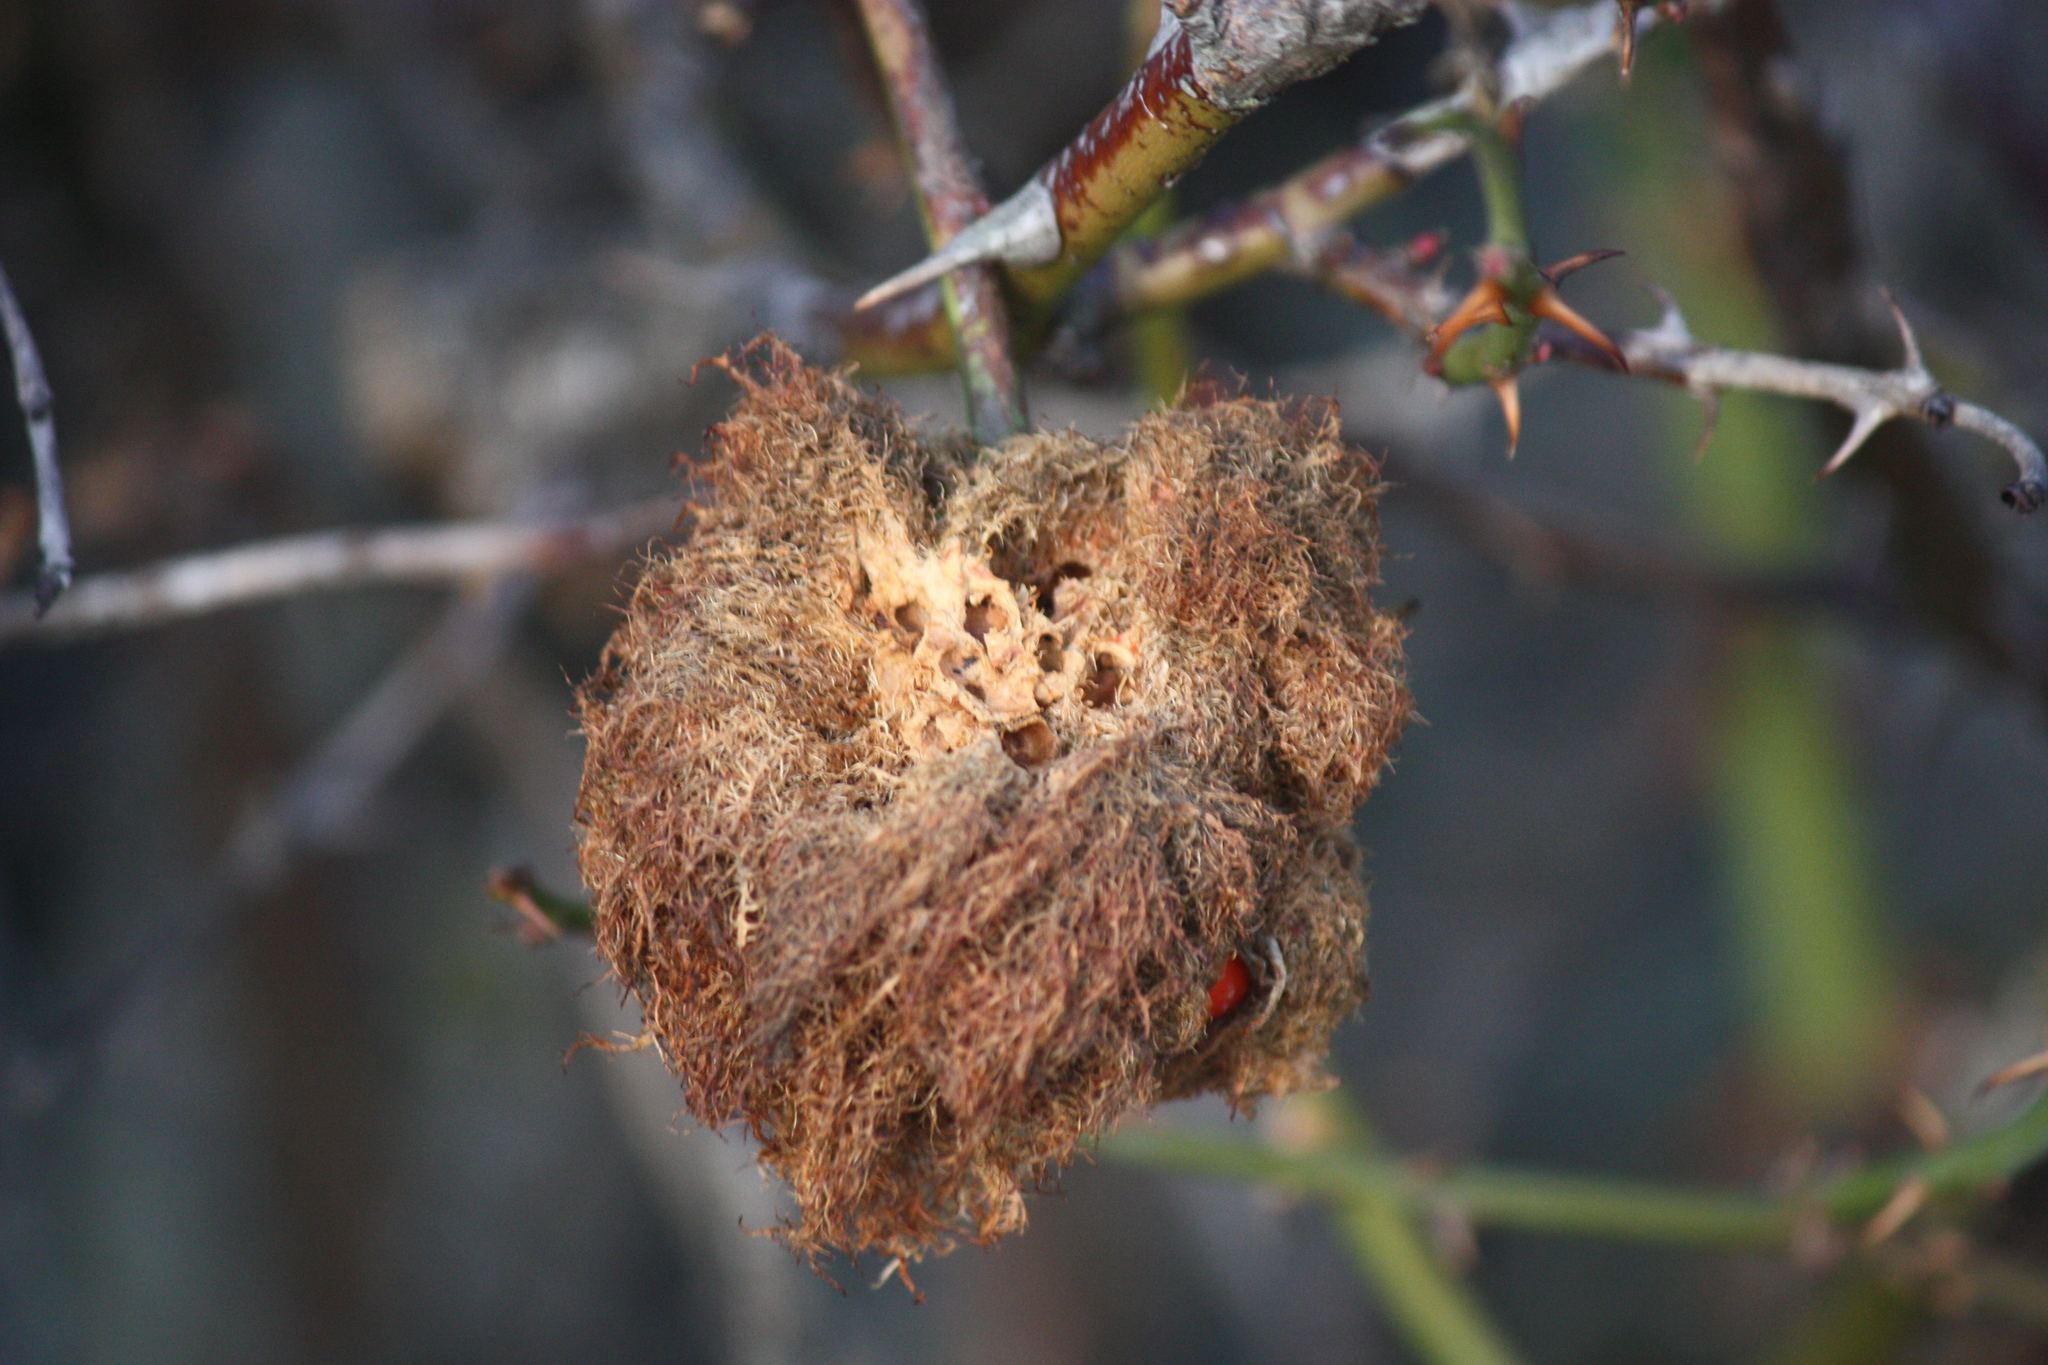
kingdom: Animalia
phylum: Arthropoda
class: Insecta
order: Hymenoptera
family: Cynipidae
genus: Diplolepis
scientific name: Diplolepis rosae
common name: Bedeguar gall
